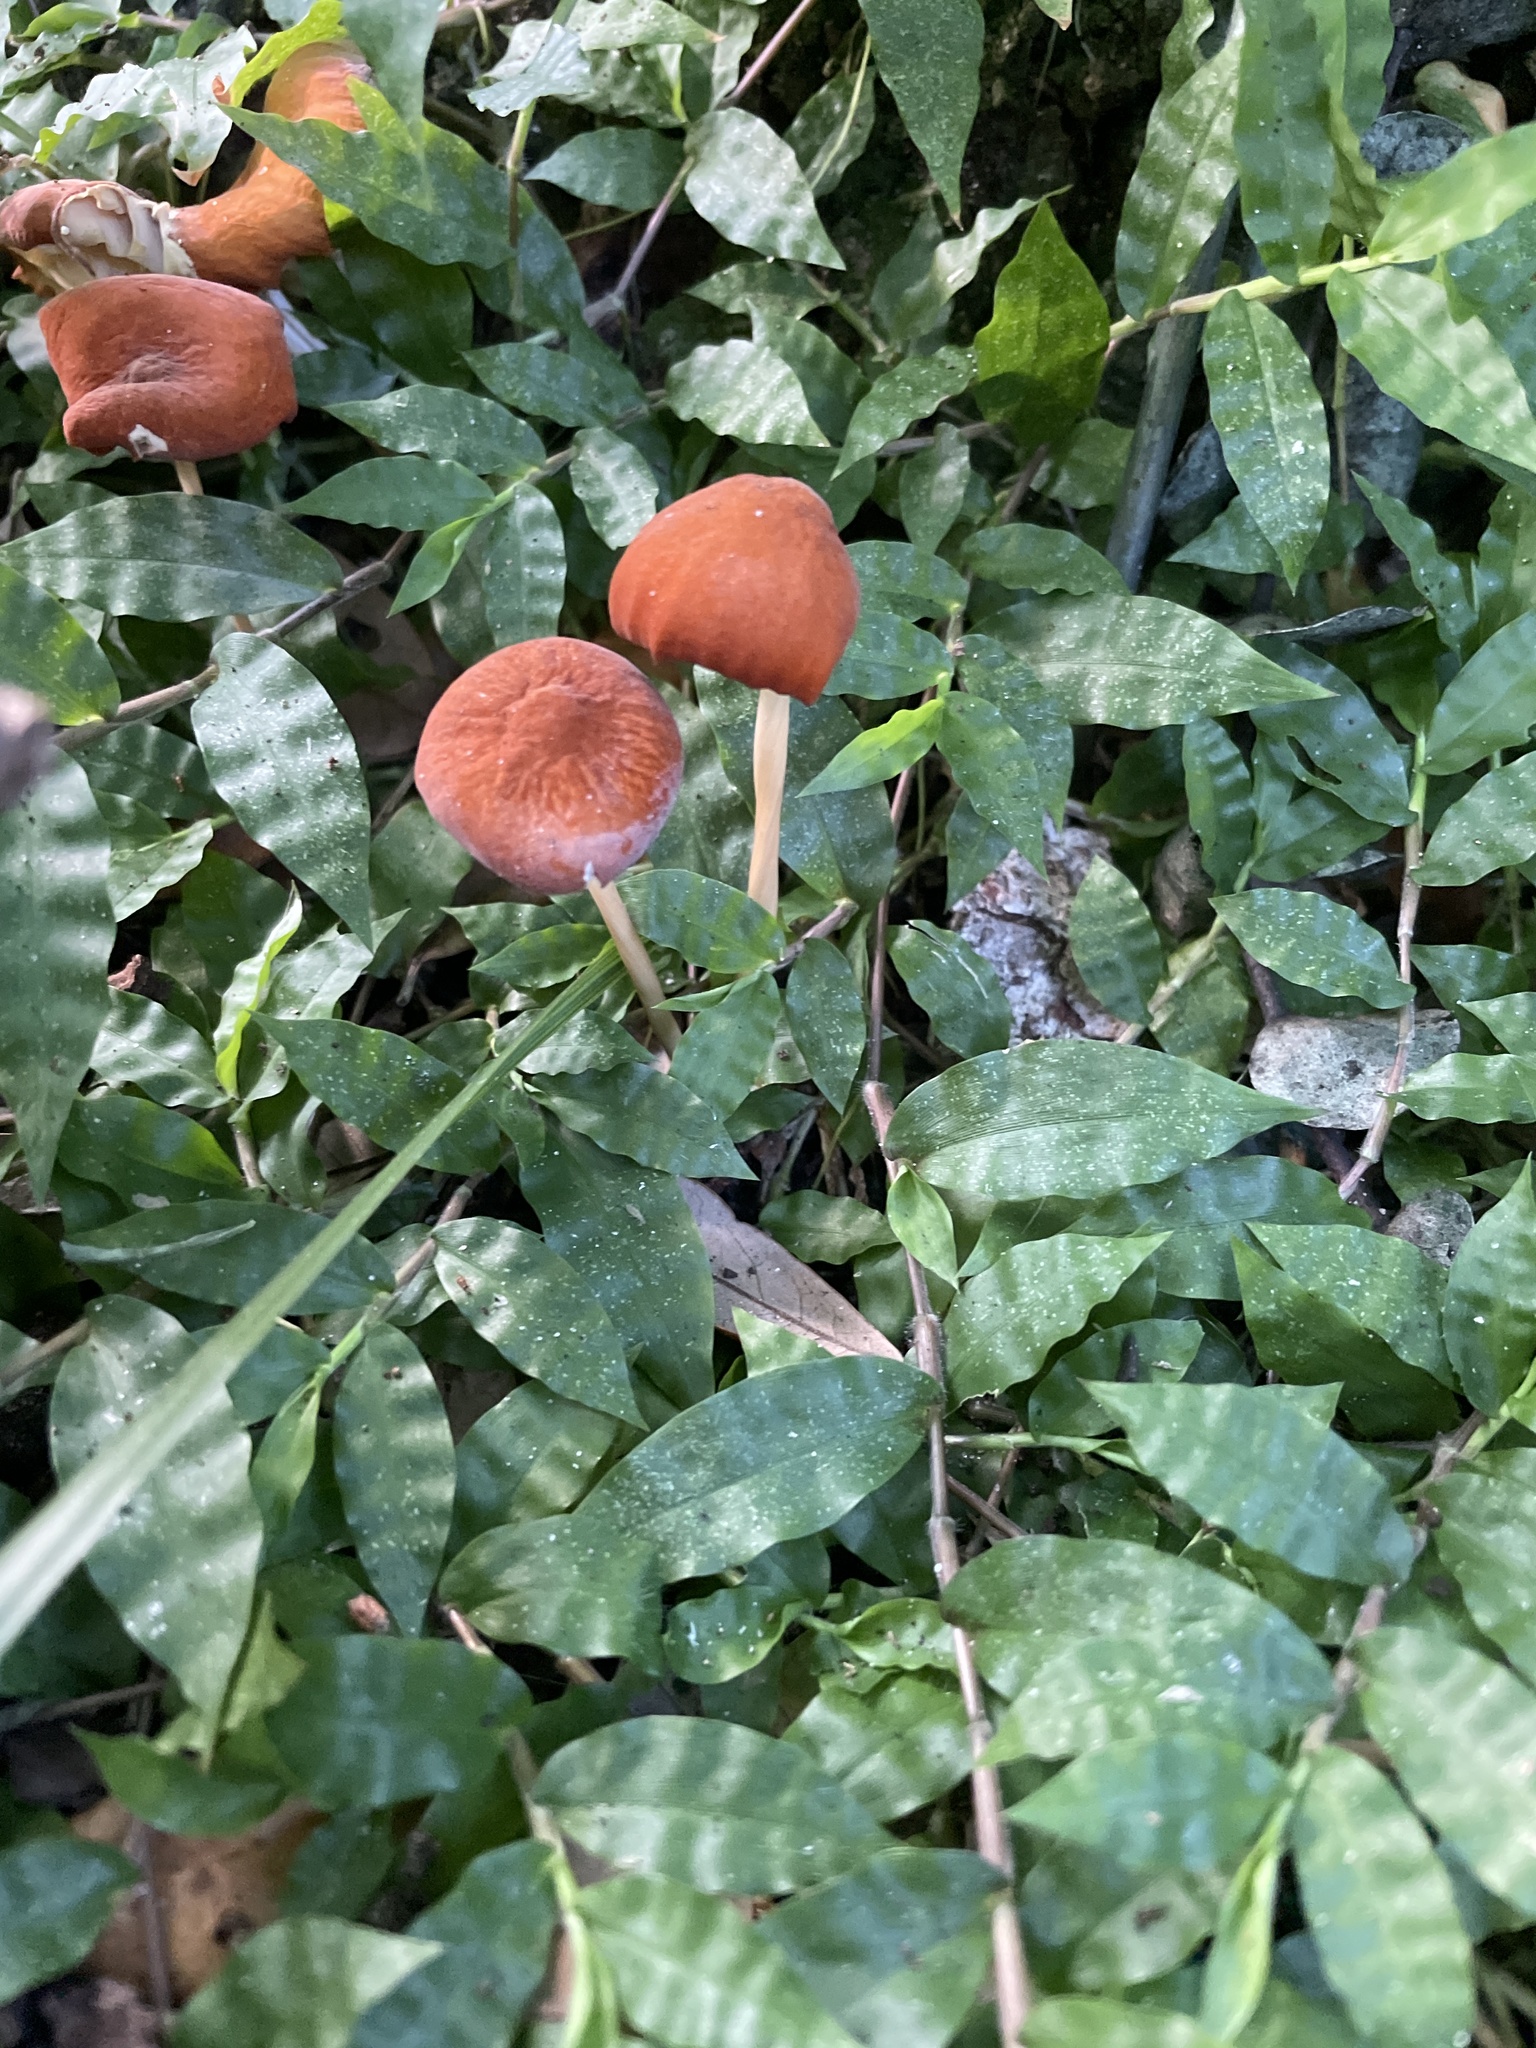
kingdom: Fungi
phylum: Basidiomycota
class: Agaricomycetes
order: Agaricales
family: Marasmiaceae
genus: Marasmius
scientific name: Marasmius vagus
